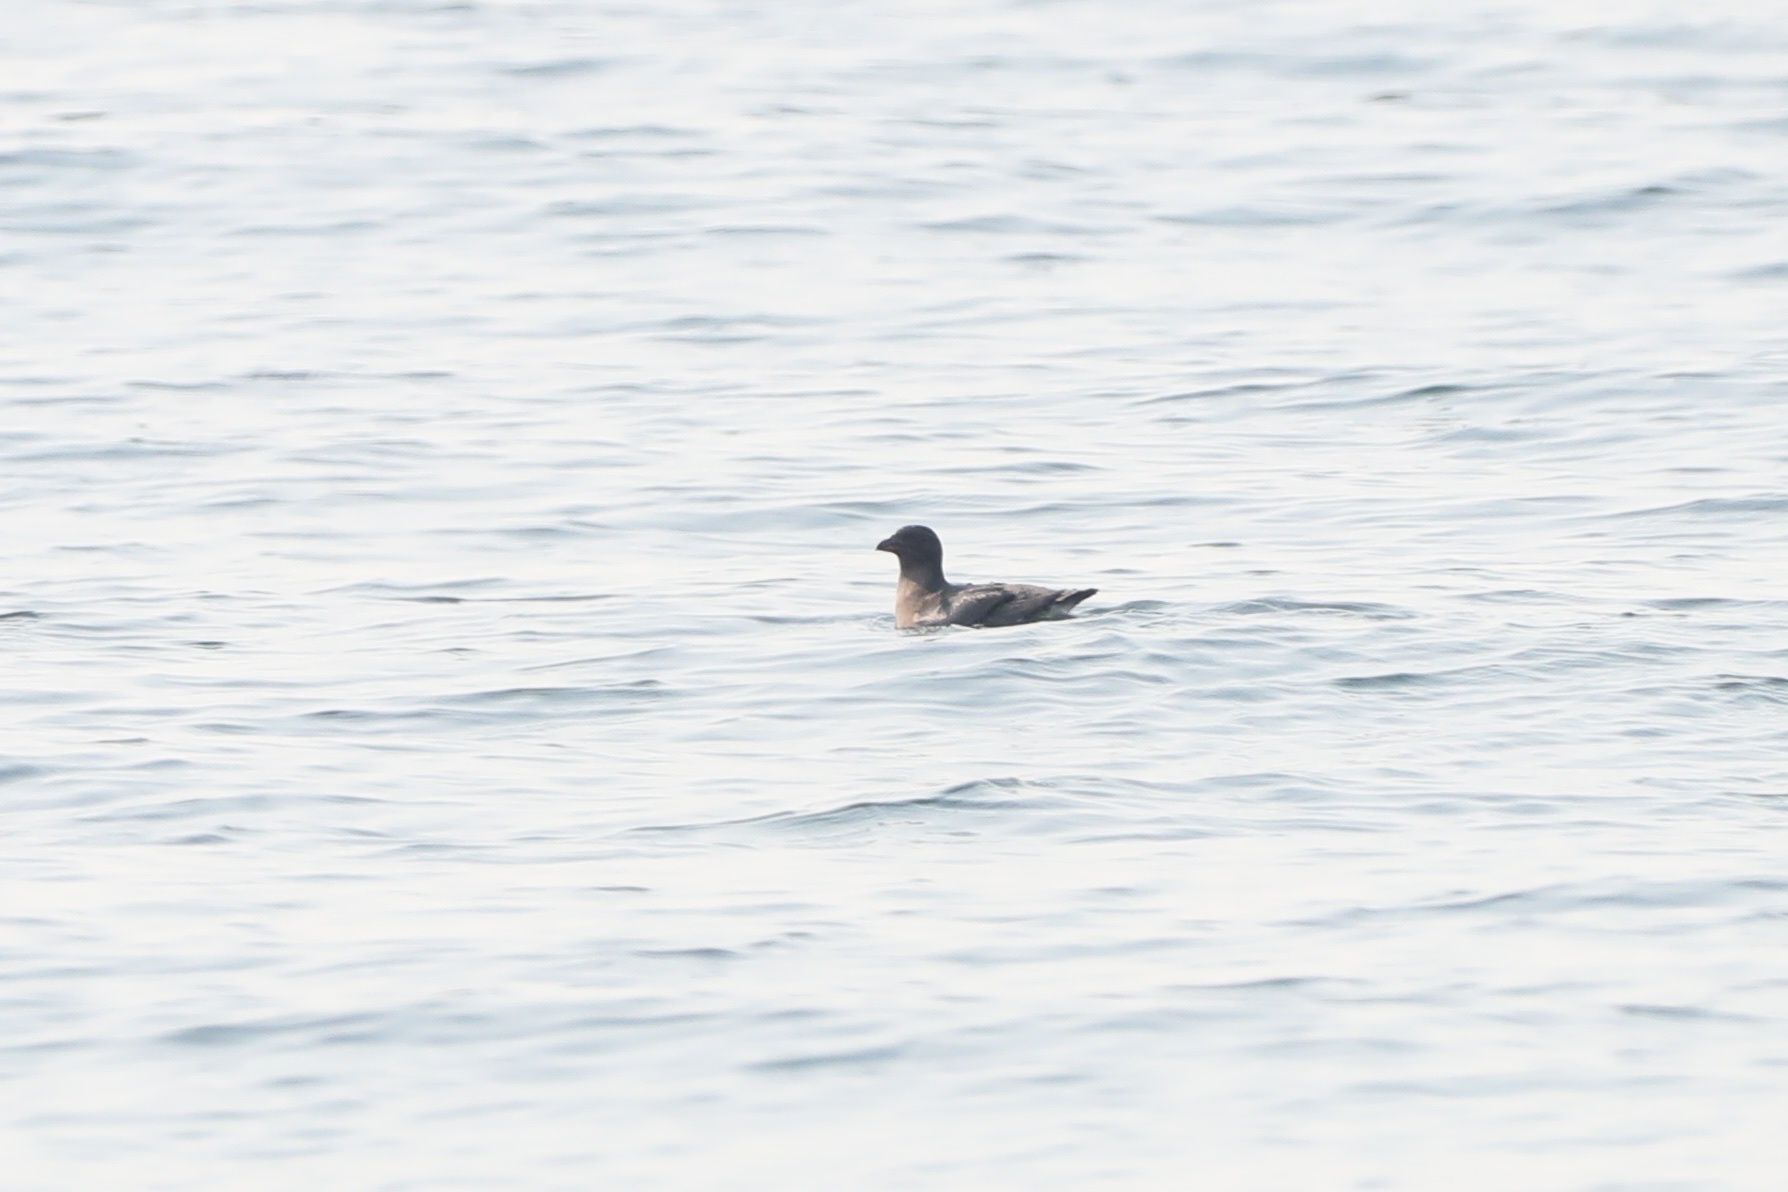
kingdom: Animalia
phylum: Chordata
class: Aves
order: Charadriiformes
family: Alcidae
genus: Cerorhinca
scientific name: Cerorhinca monocerata
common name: Rhinoceros auklet
